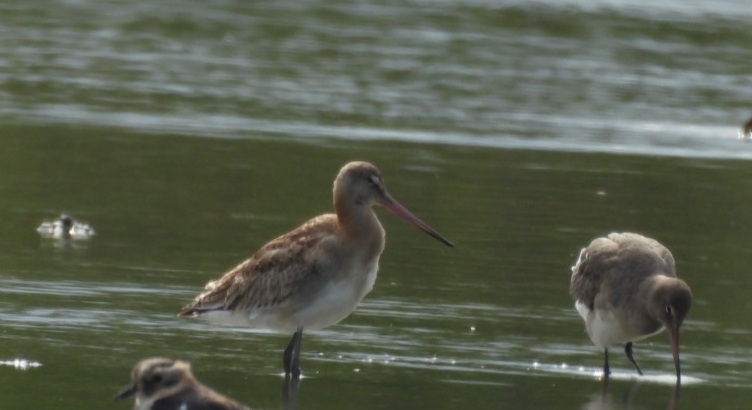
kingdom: Animalia
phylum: Chordata
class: Aves
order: Charadriiformes
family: Scolopacidae
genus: Limosa
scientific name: Limosa limosa
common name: Black-tailed godwit
